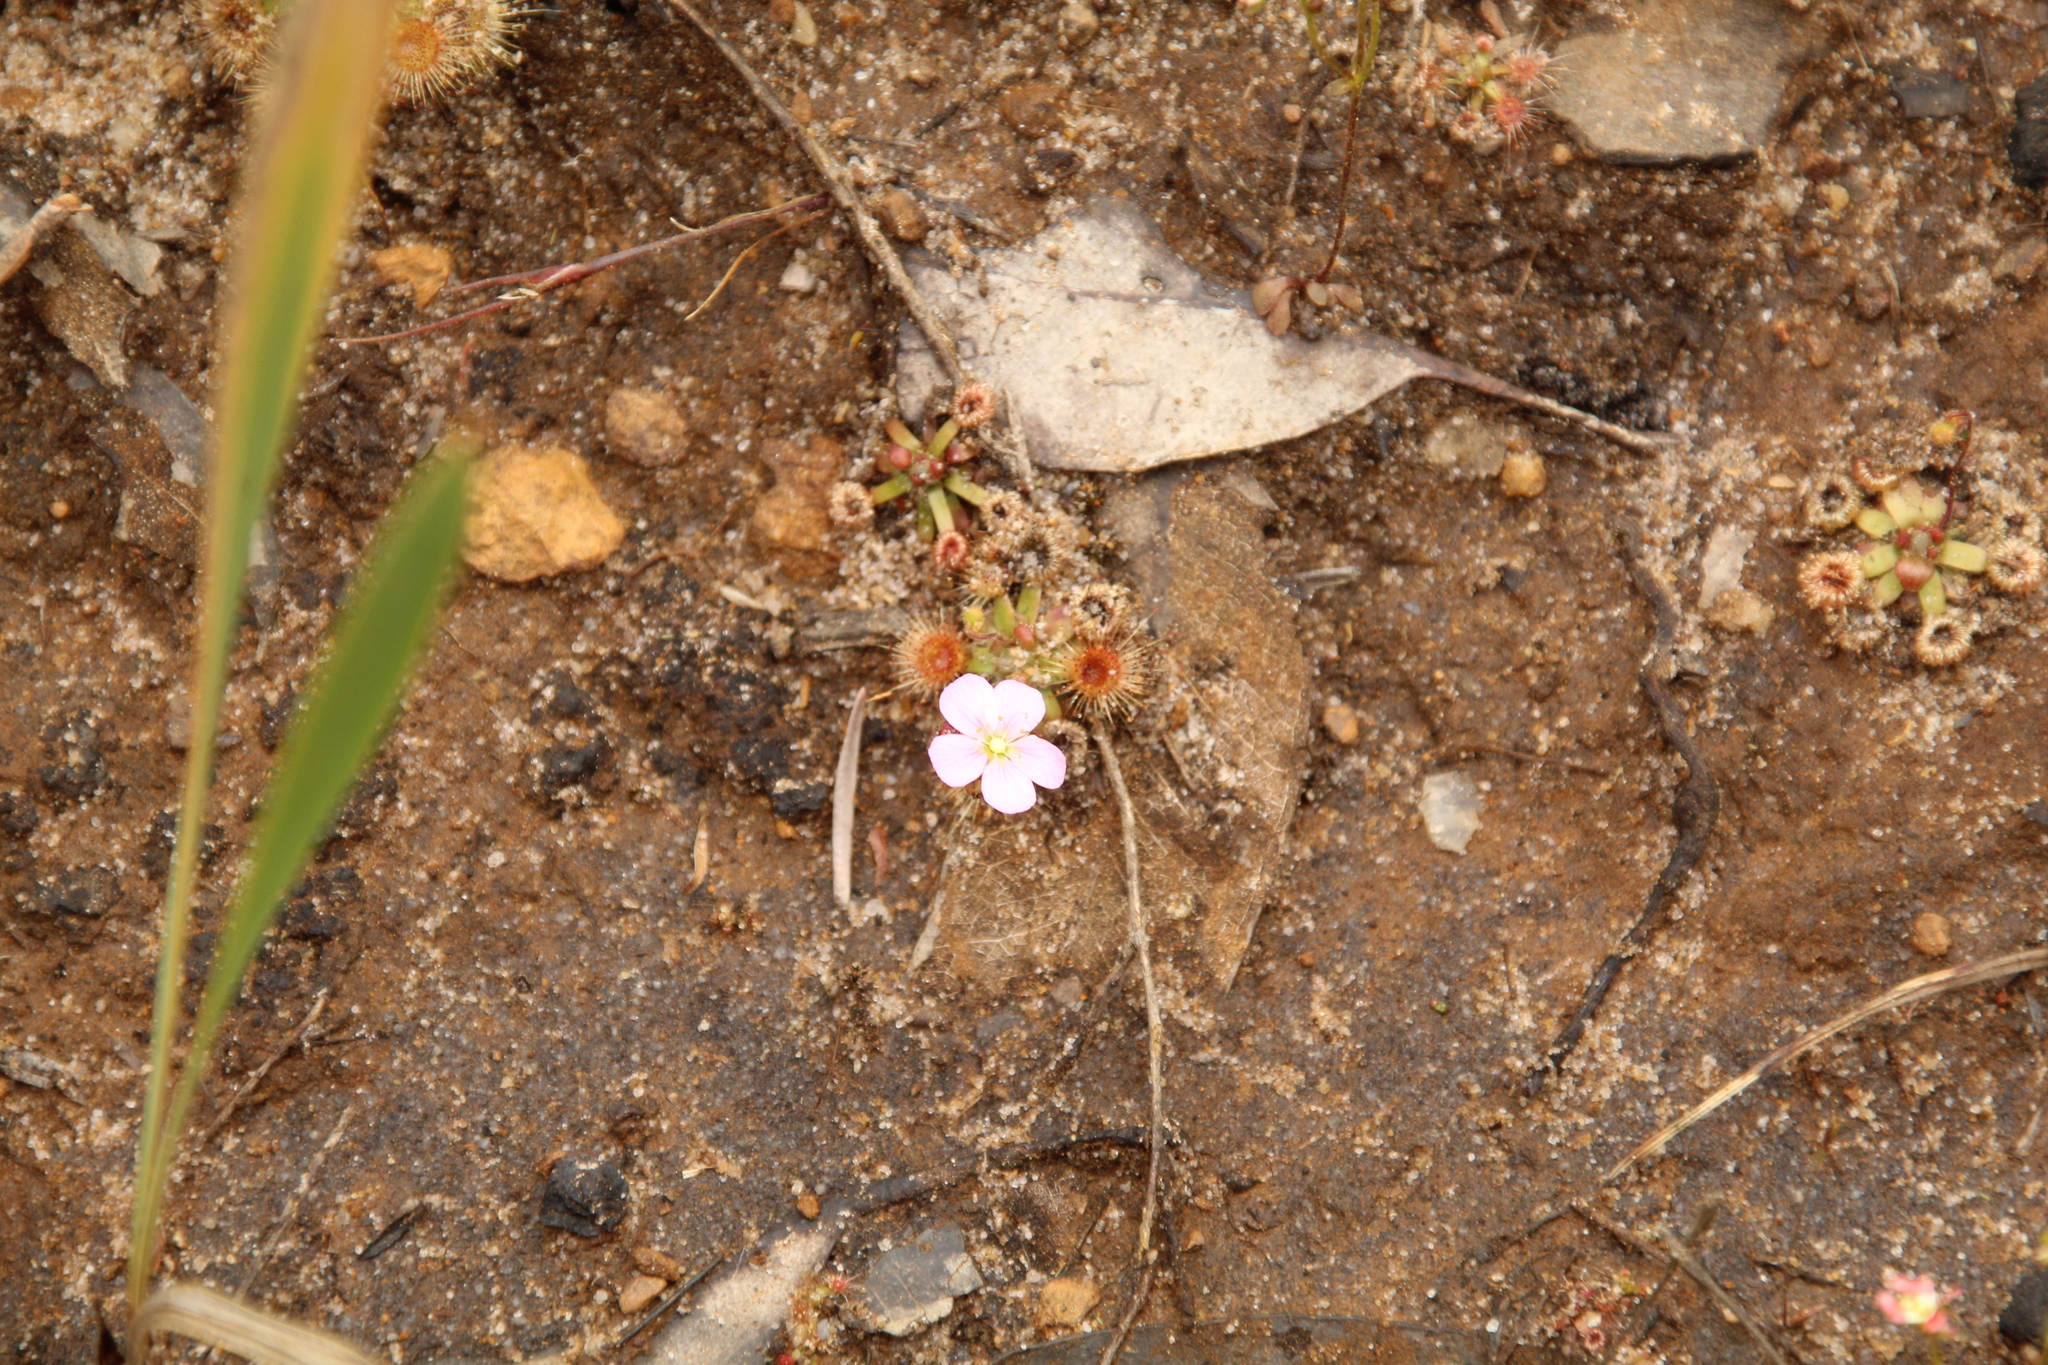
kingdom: Plantae
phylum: Tracheophyta
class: Magnoliopsida
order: Caryophyllales
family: Droseraceae
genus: Drosera
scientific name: Drosera pulchella
